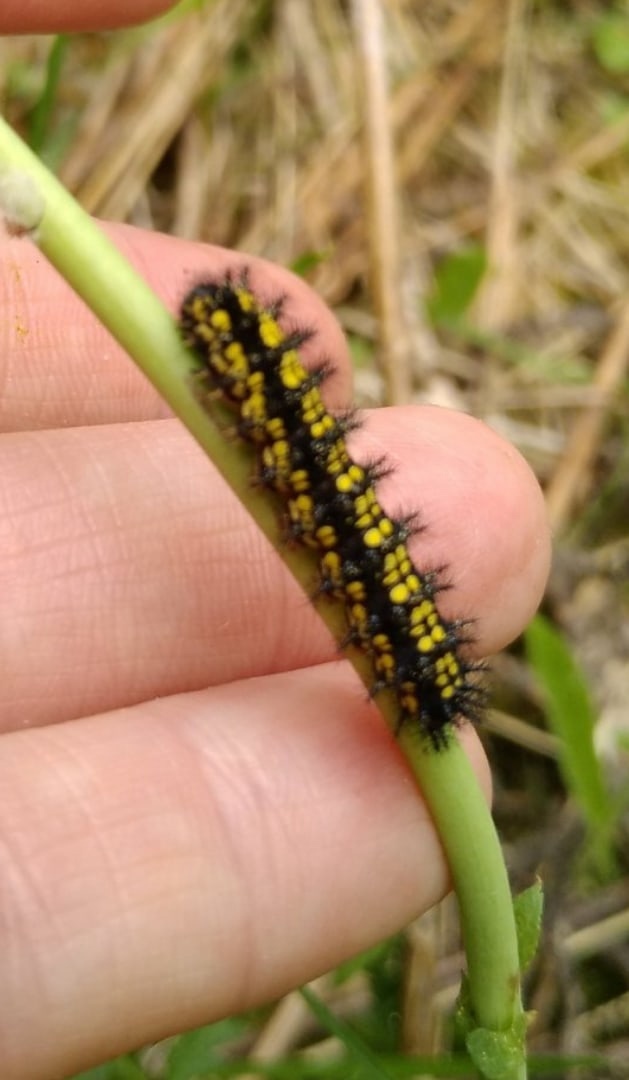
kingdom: Animalia
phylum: Arthropoda
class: Insecta
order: Lepidoptera
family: Nymphalidae
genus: Euphydryas
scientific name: Euphydryas maturna
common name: Scarce fritillary
